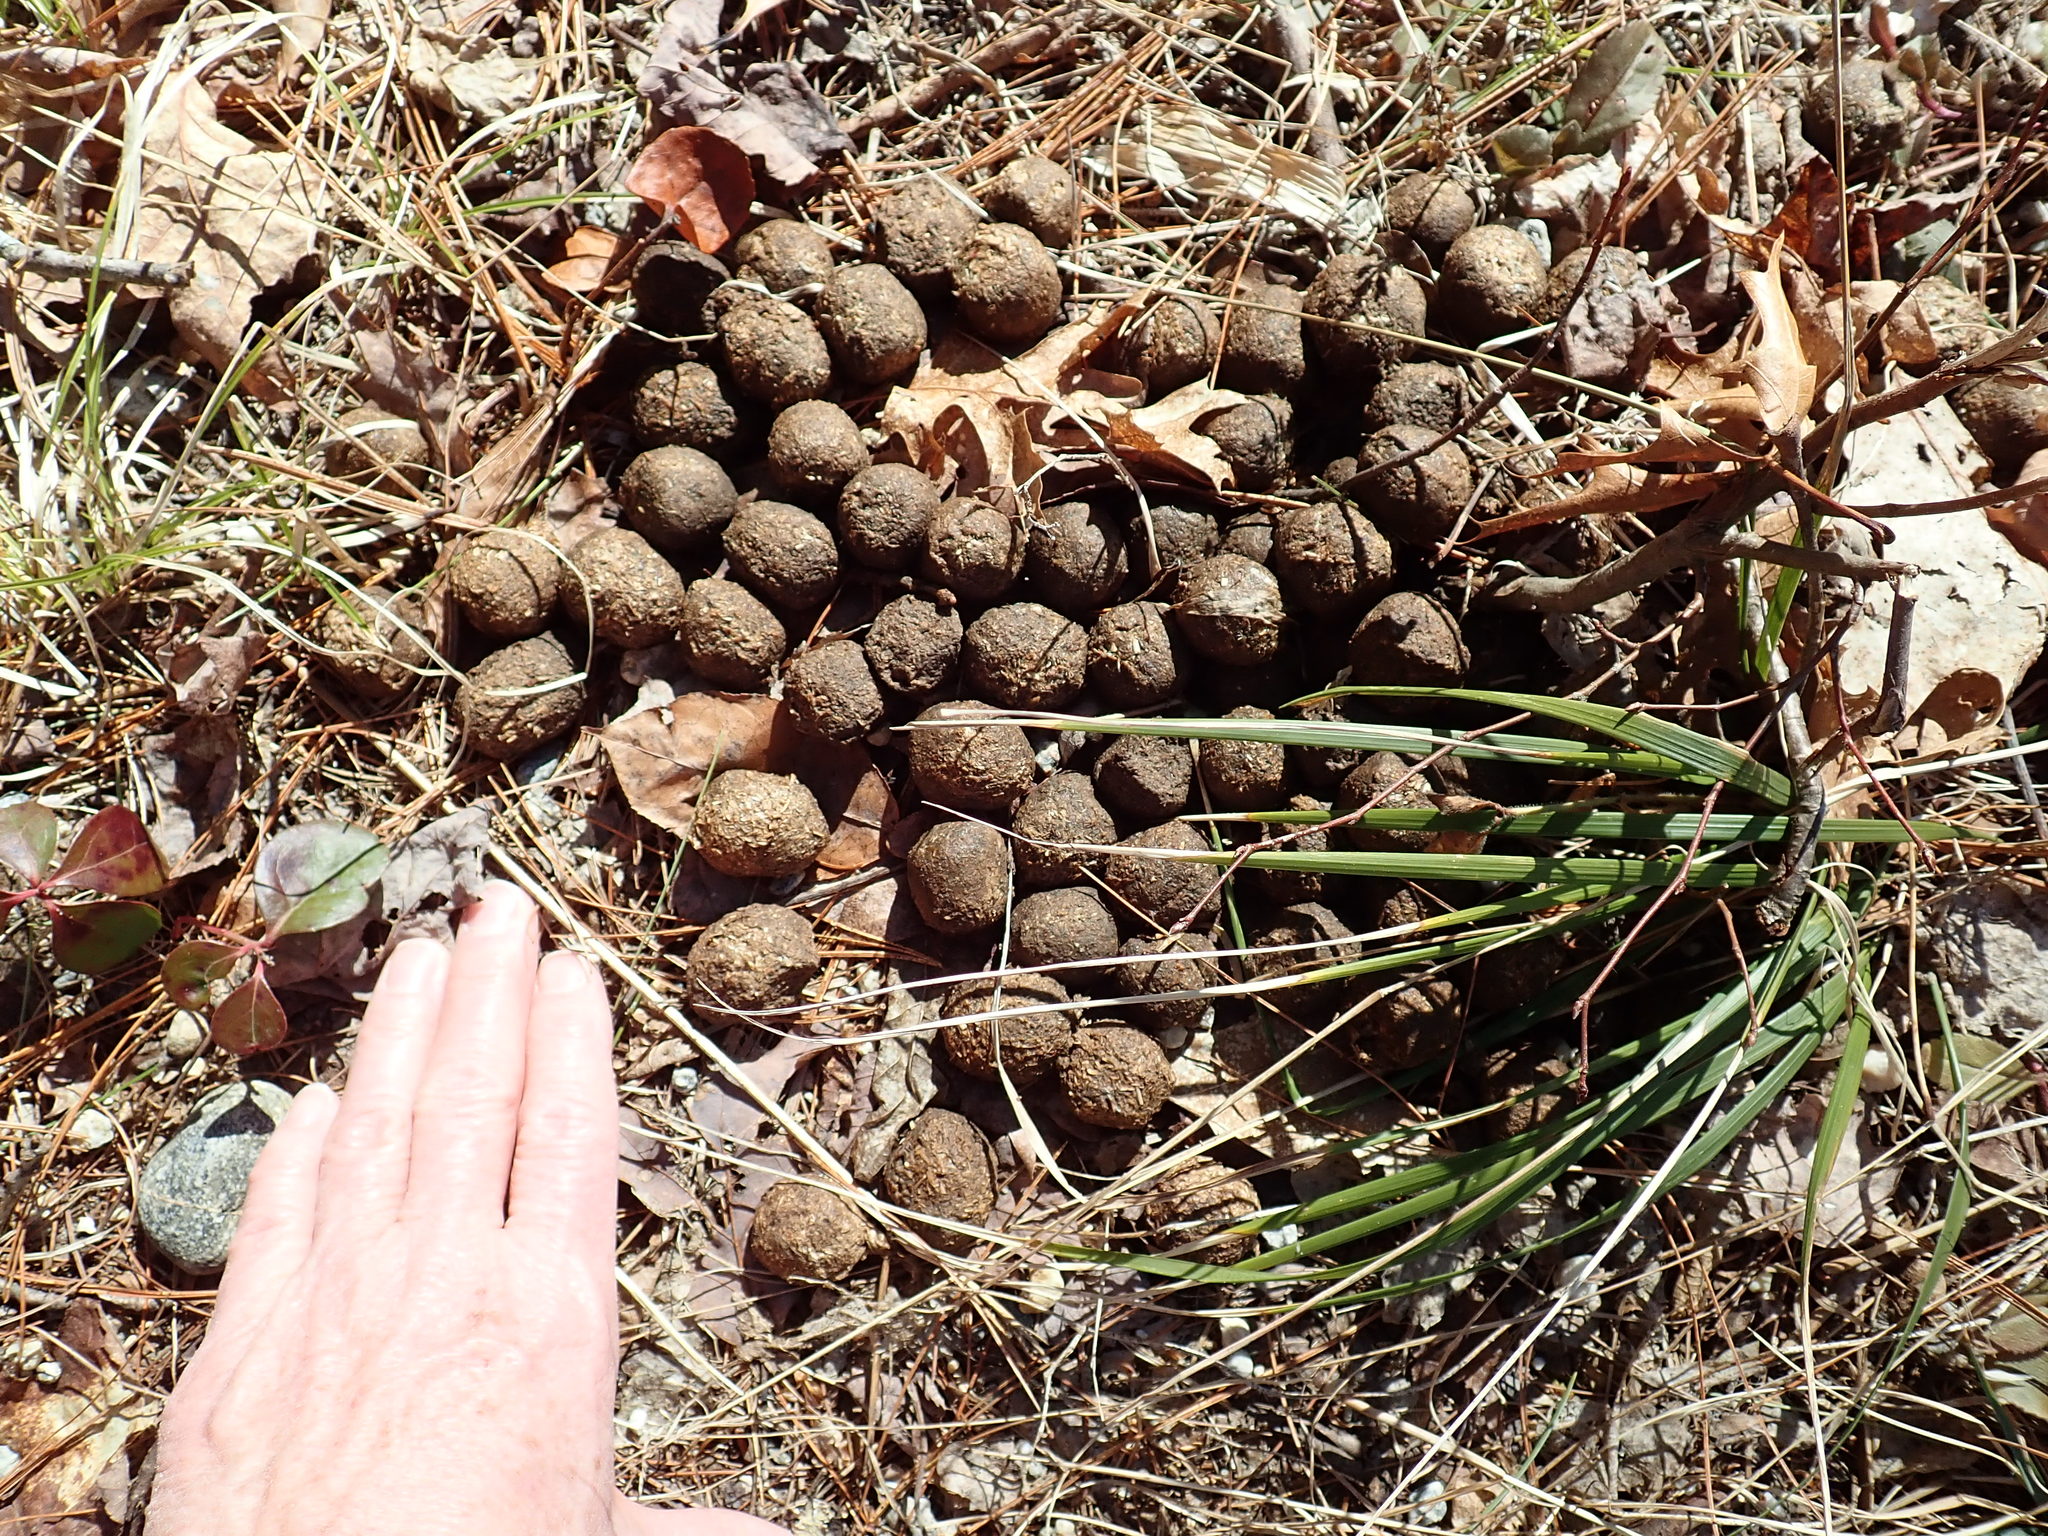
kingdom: Animalia
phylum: Chordata
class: Mammalia
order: Artiodactyla
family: Cervidae
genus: Alces
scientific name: Alces alces
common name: Moose
